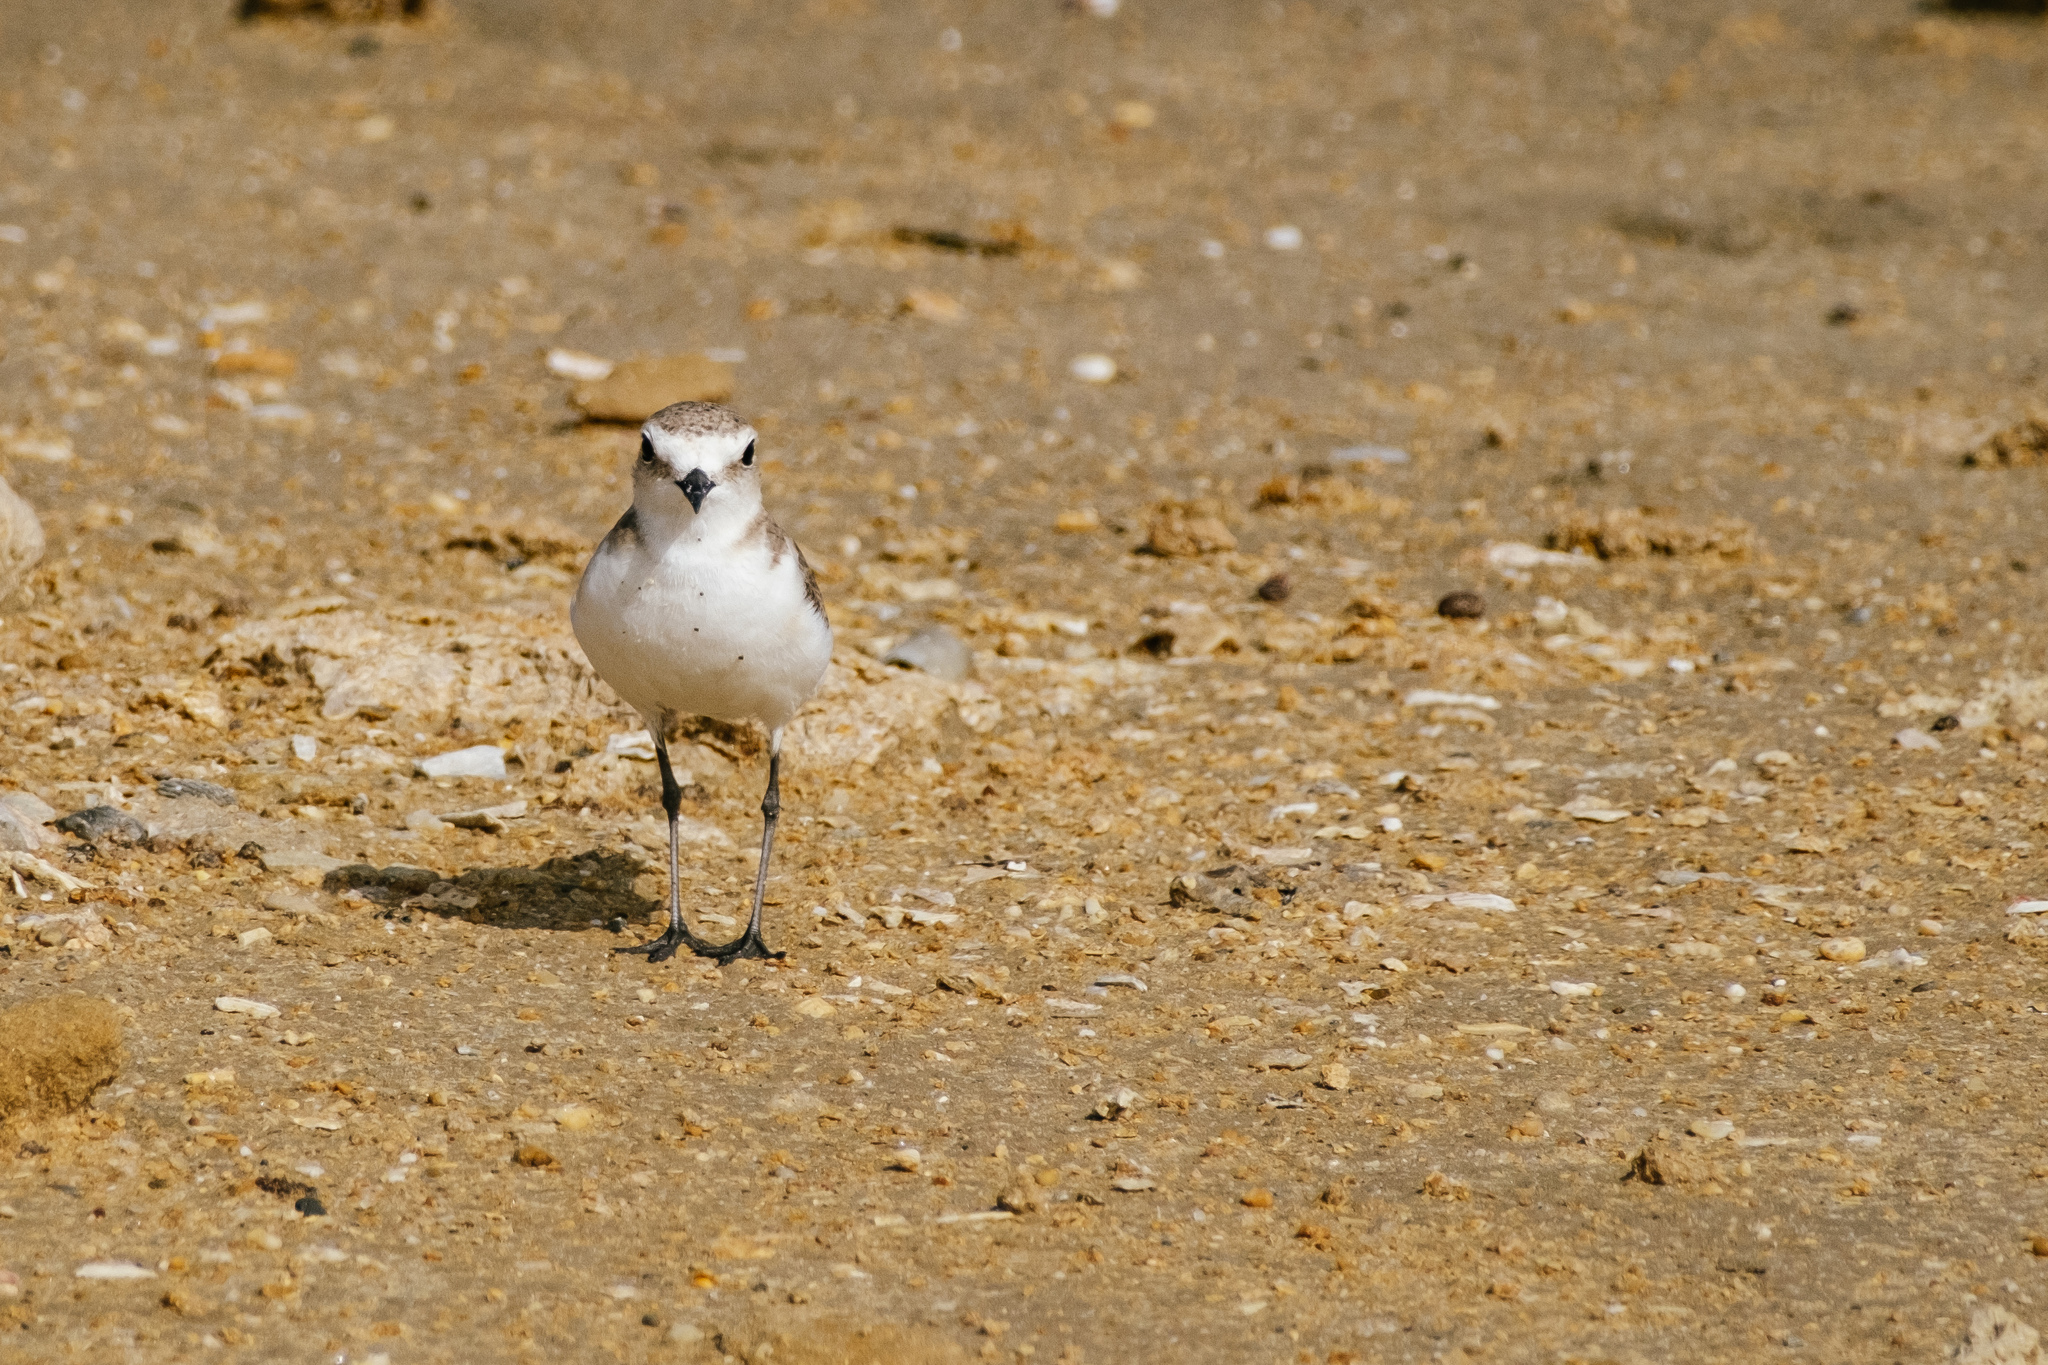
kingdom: Animalia
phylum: Chordata
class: Aves
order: Charadriiformes
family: Charadriidae
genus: Charadrius
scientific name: Charadrius alexandrinus
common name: Kentish plover
